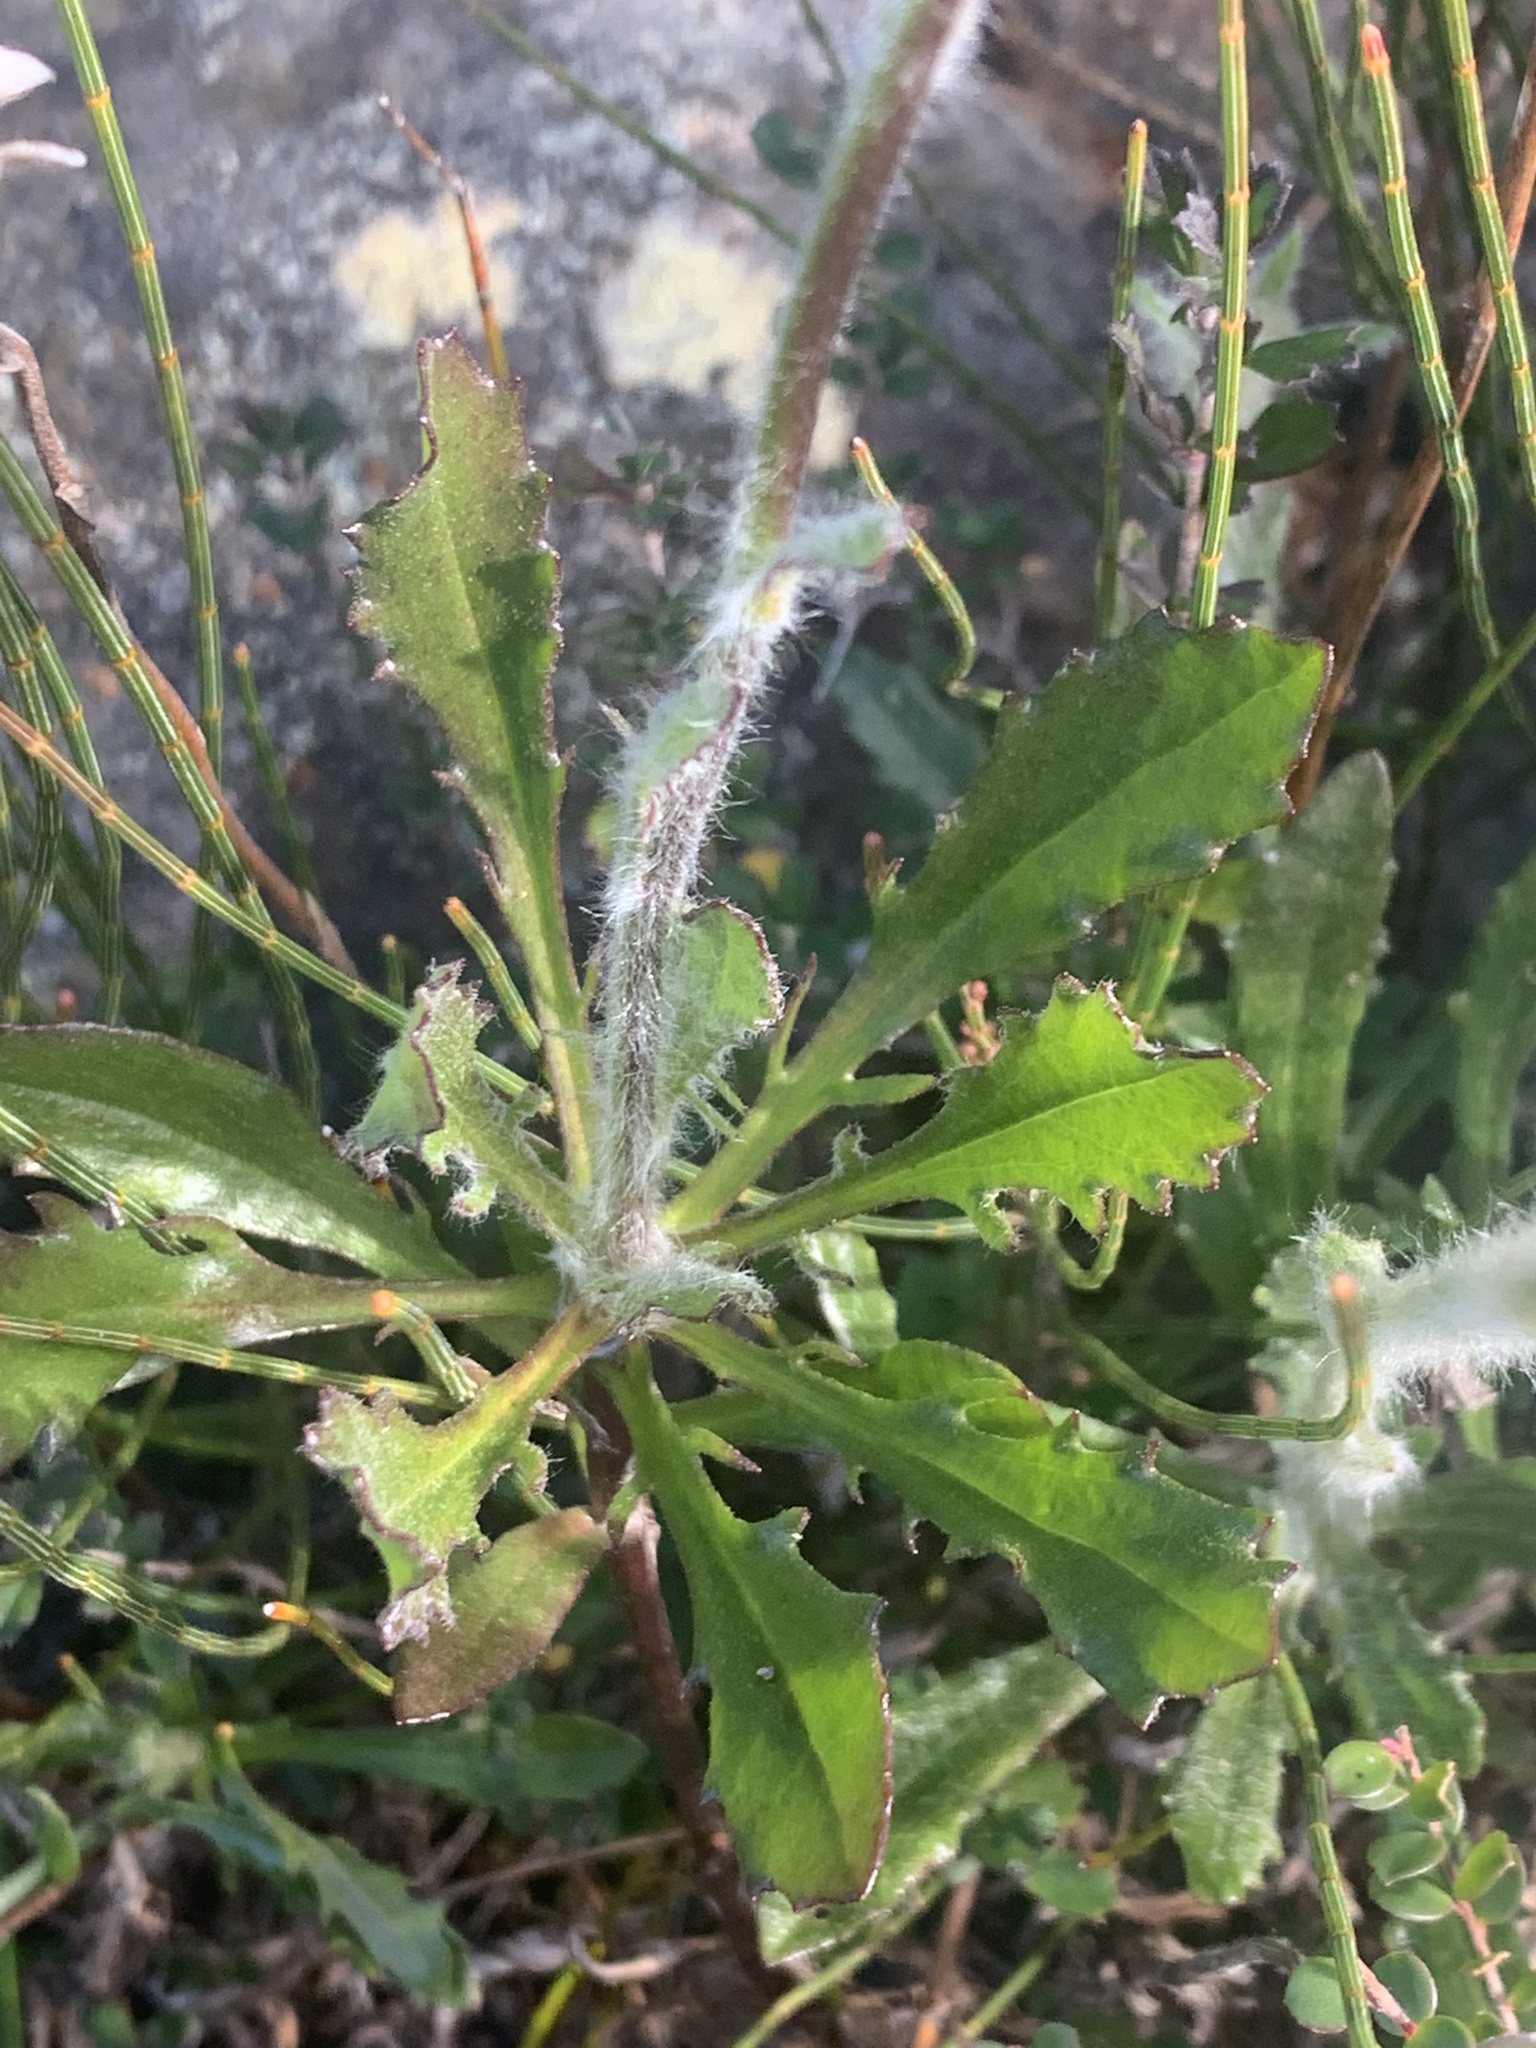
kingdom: Plantae
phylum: Tracheophyta
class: Magnoliopsida
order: Asterales
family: Goodeniaceae
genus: Goodenia
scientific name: Goodenia glomerata
